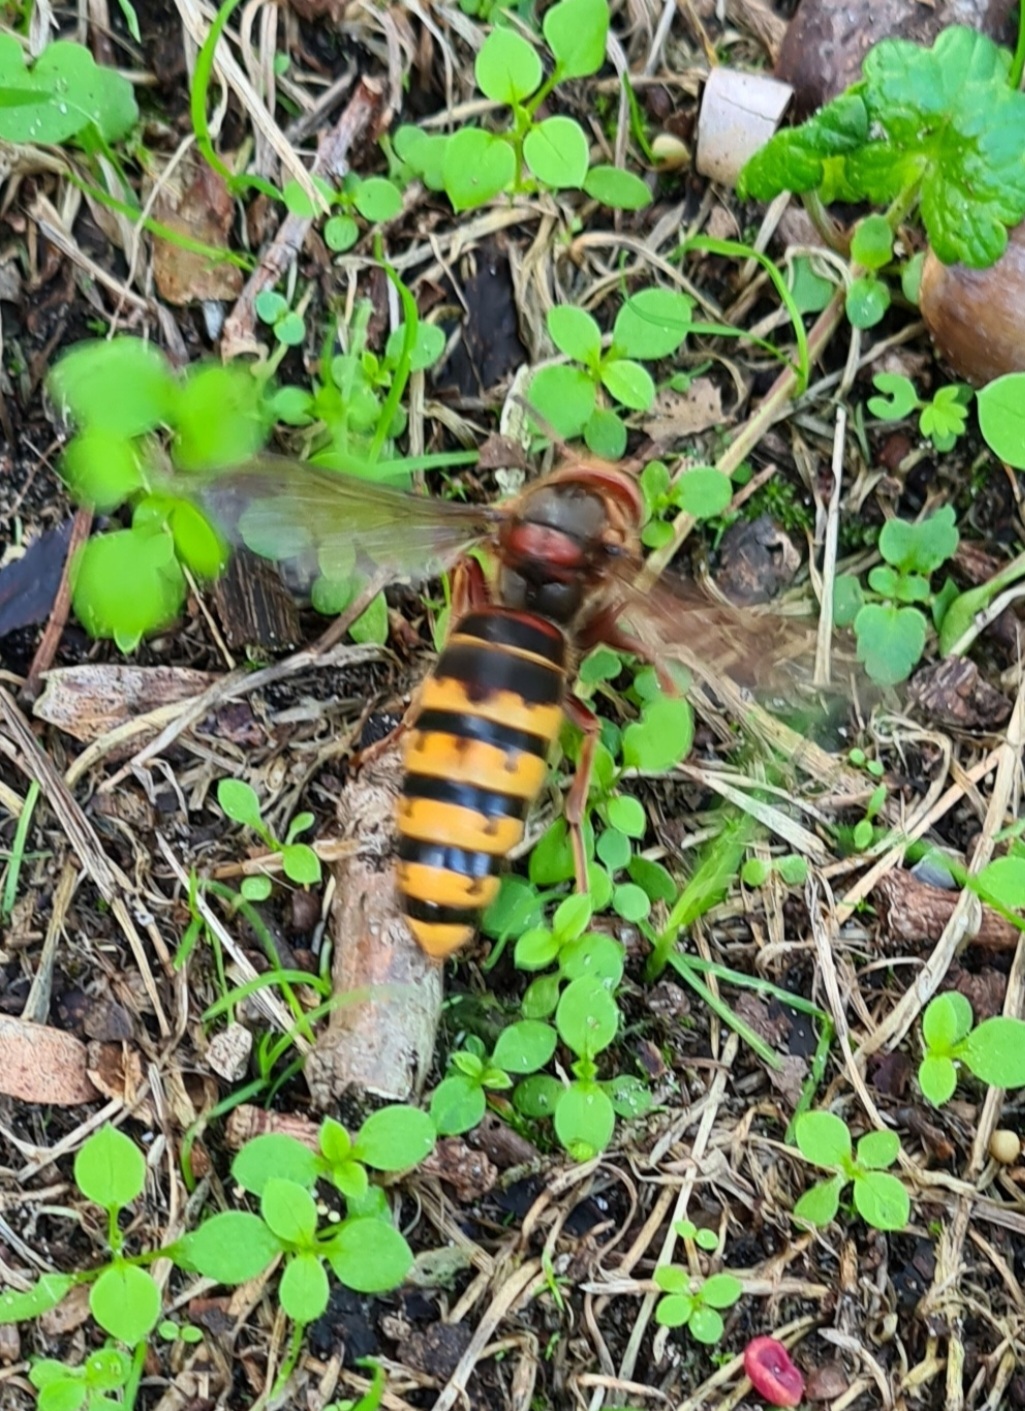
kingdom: Animalia
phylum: Arthropoda
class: Insecta
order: Hymenoptera
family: Vespidae
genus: Vespa
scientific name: Vespa crabro
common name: Hornet
